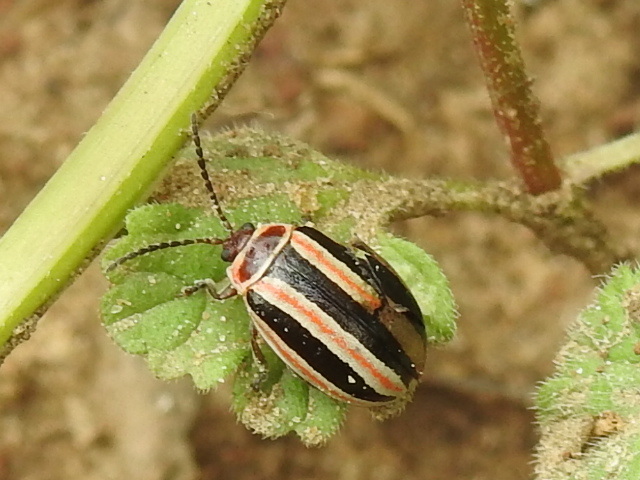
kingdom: Animalia
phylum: Arthropoda
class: Insecta
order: Coleoptera
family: Chrysomelidae
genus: Kuschelina
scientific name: Kuschelina miniata
